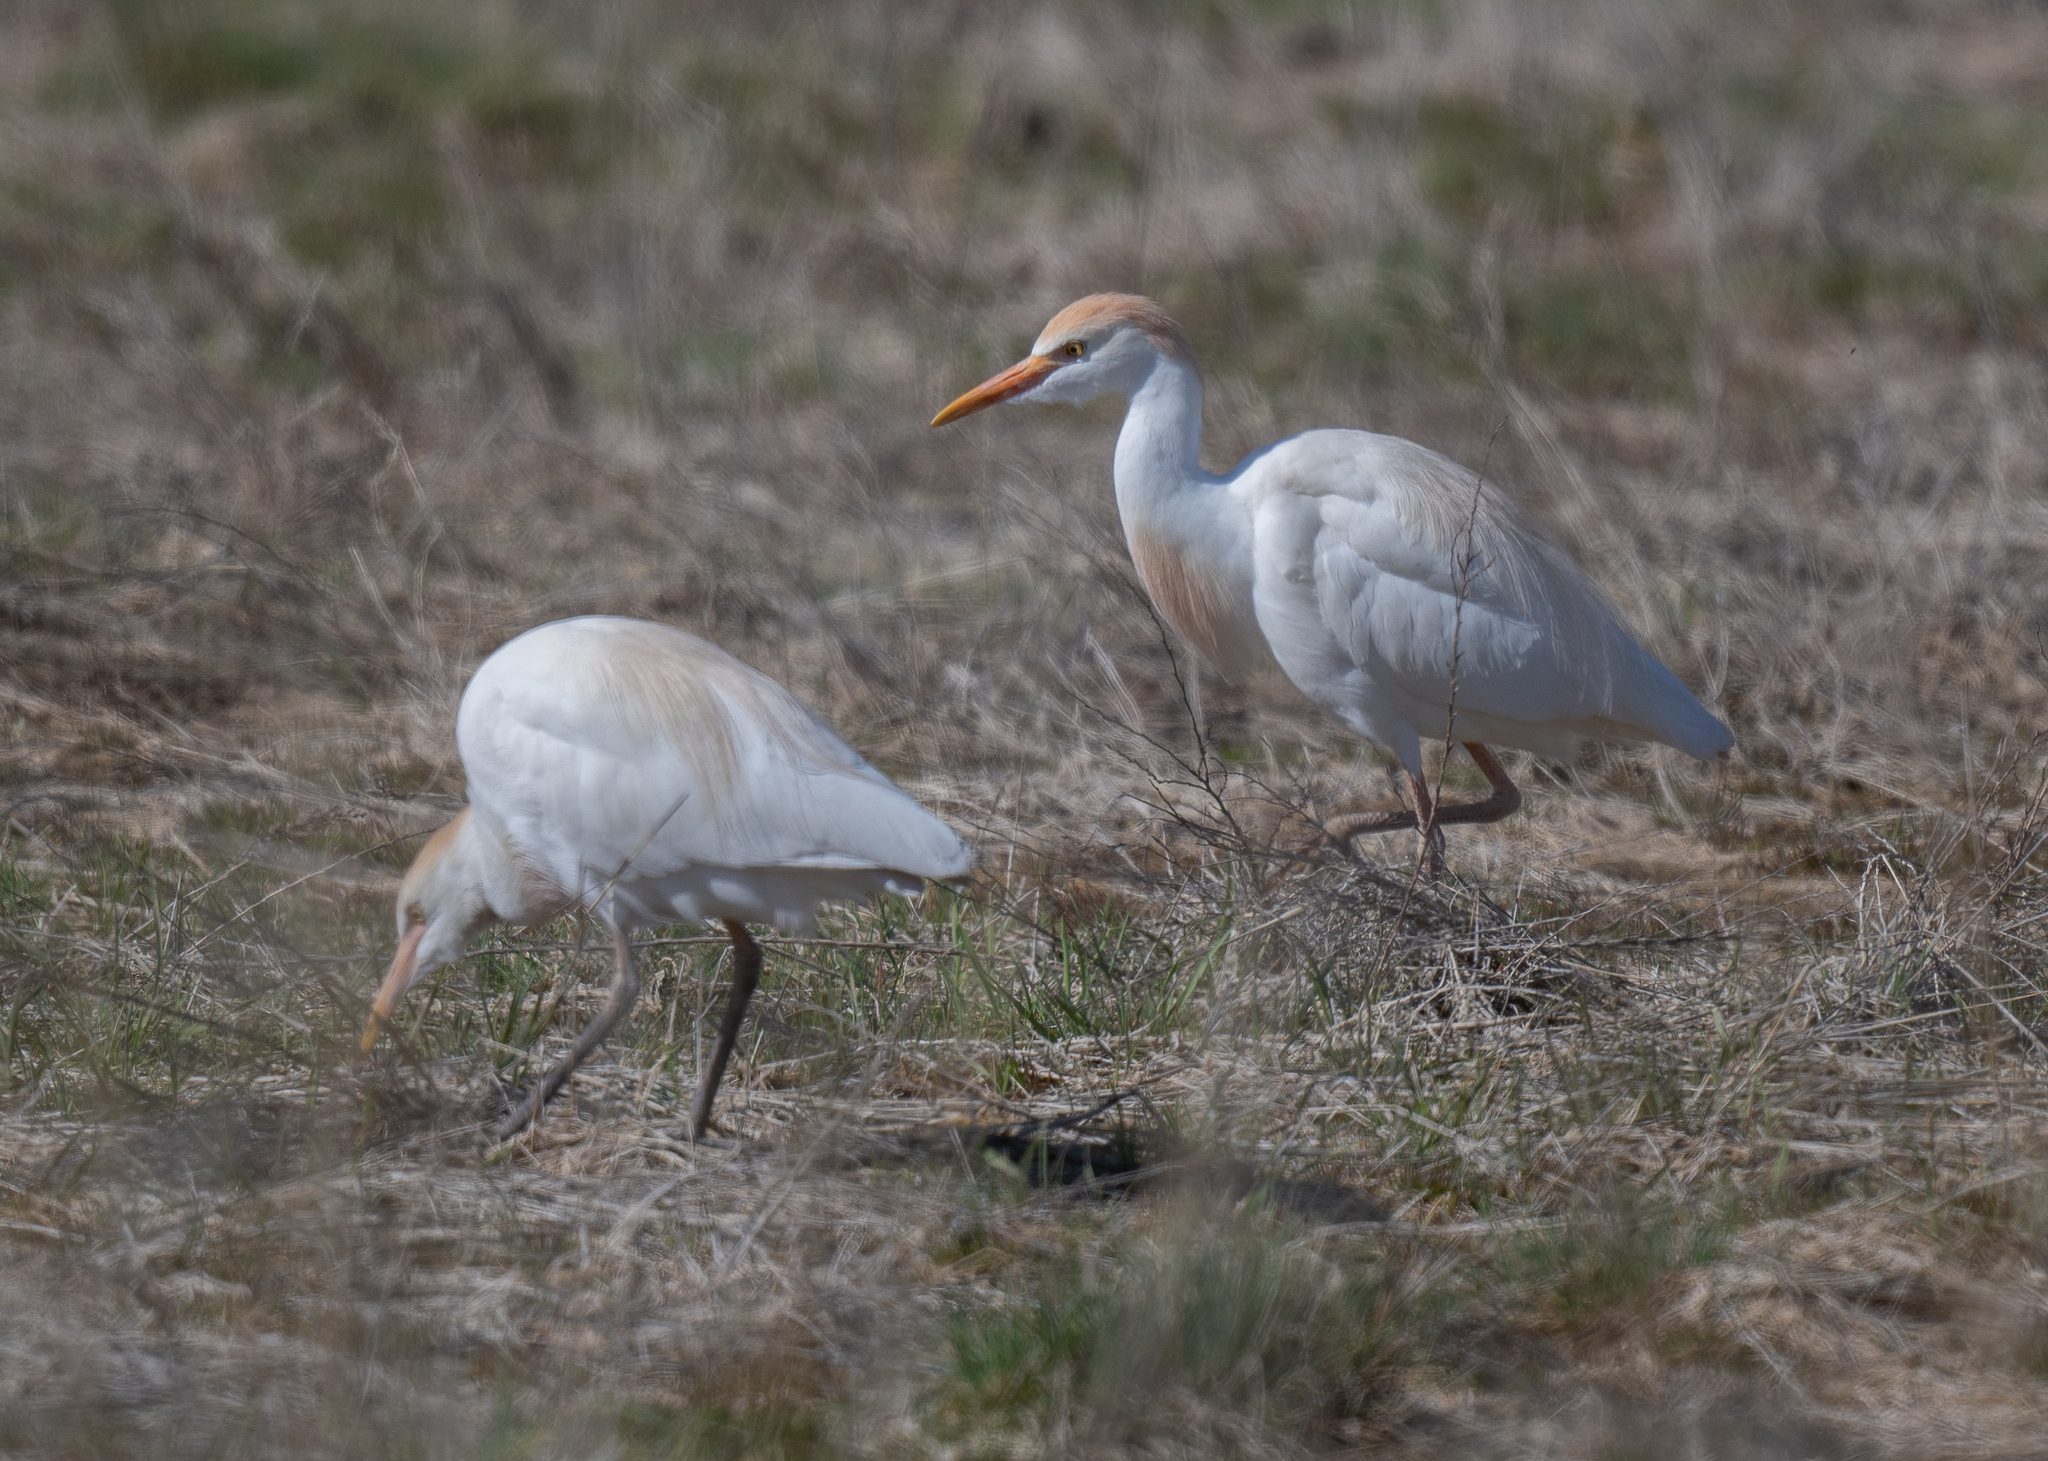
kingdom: Animalia
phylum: Chordata
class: Aves
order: Pelecaniformes
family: Ardeidae
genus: Bubulcus
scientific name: Bubulcus ibis
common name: Cattle egret
